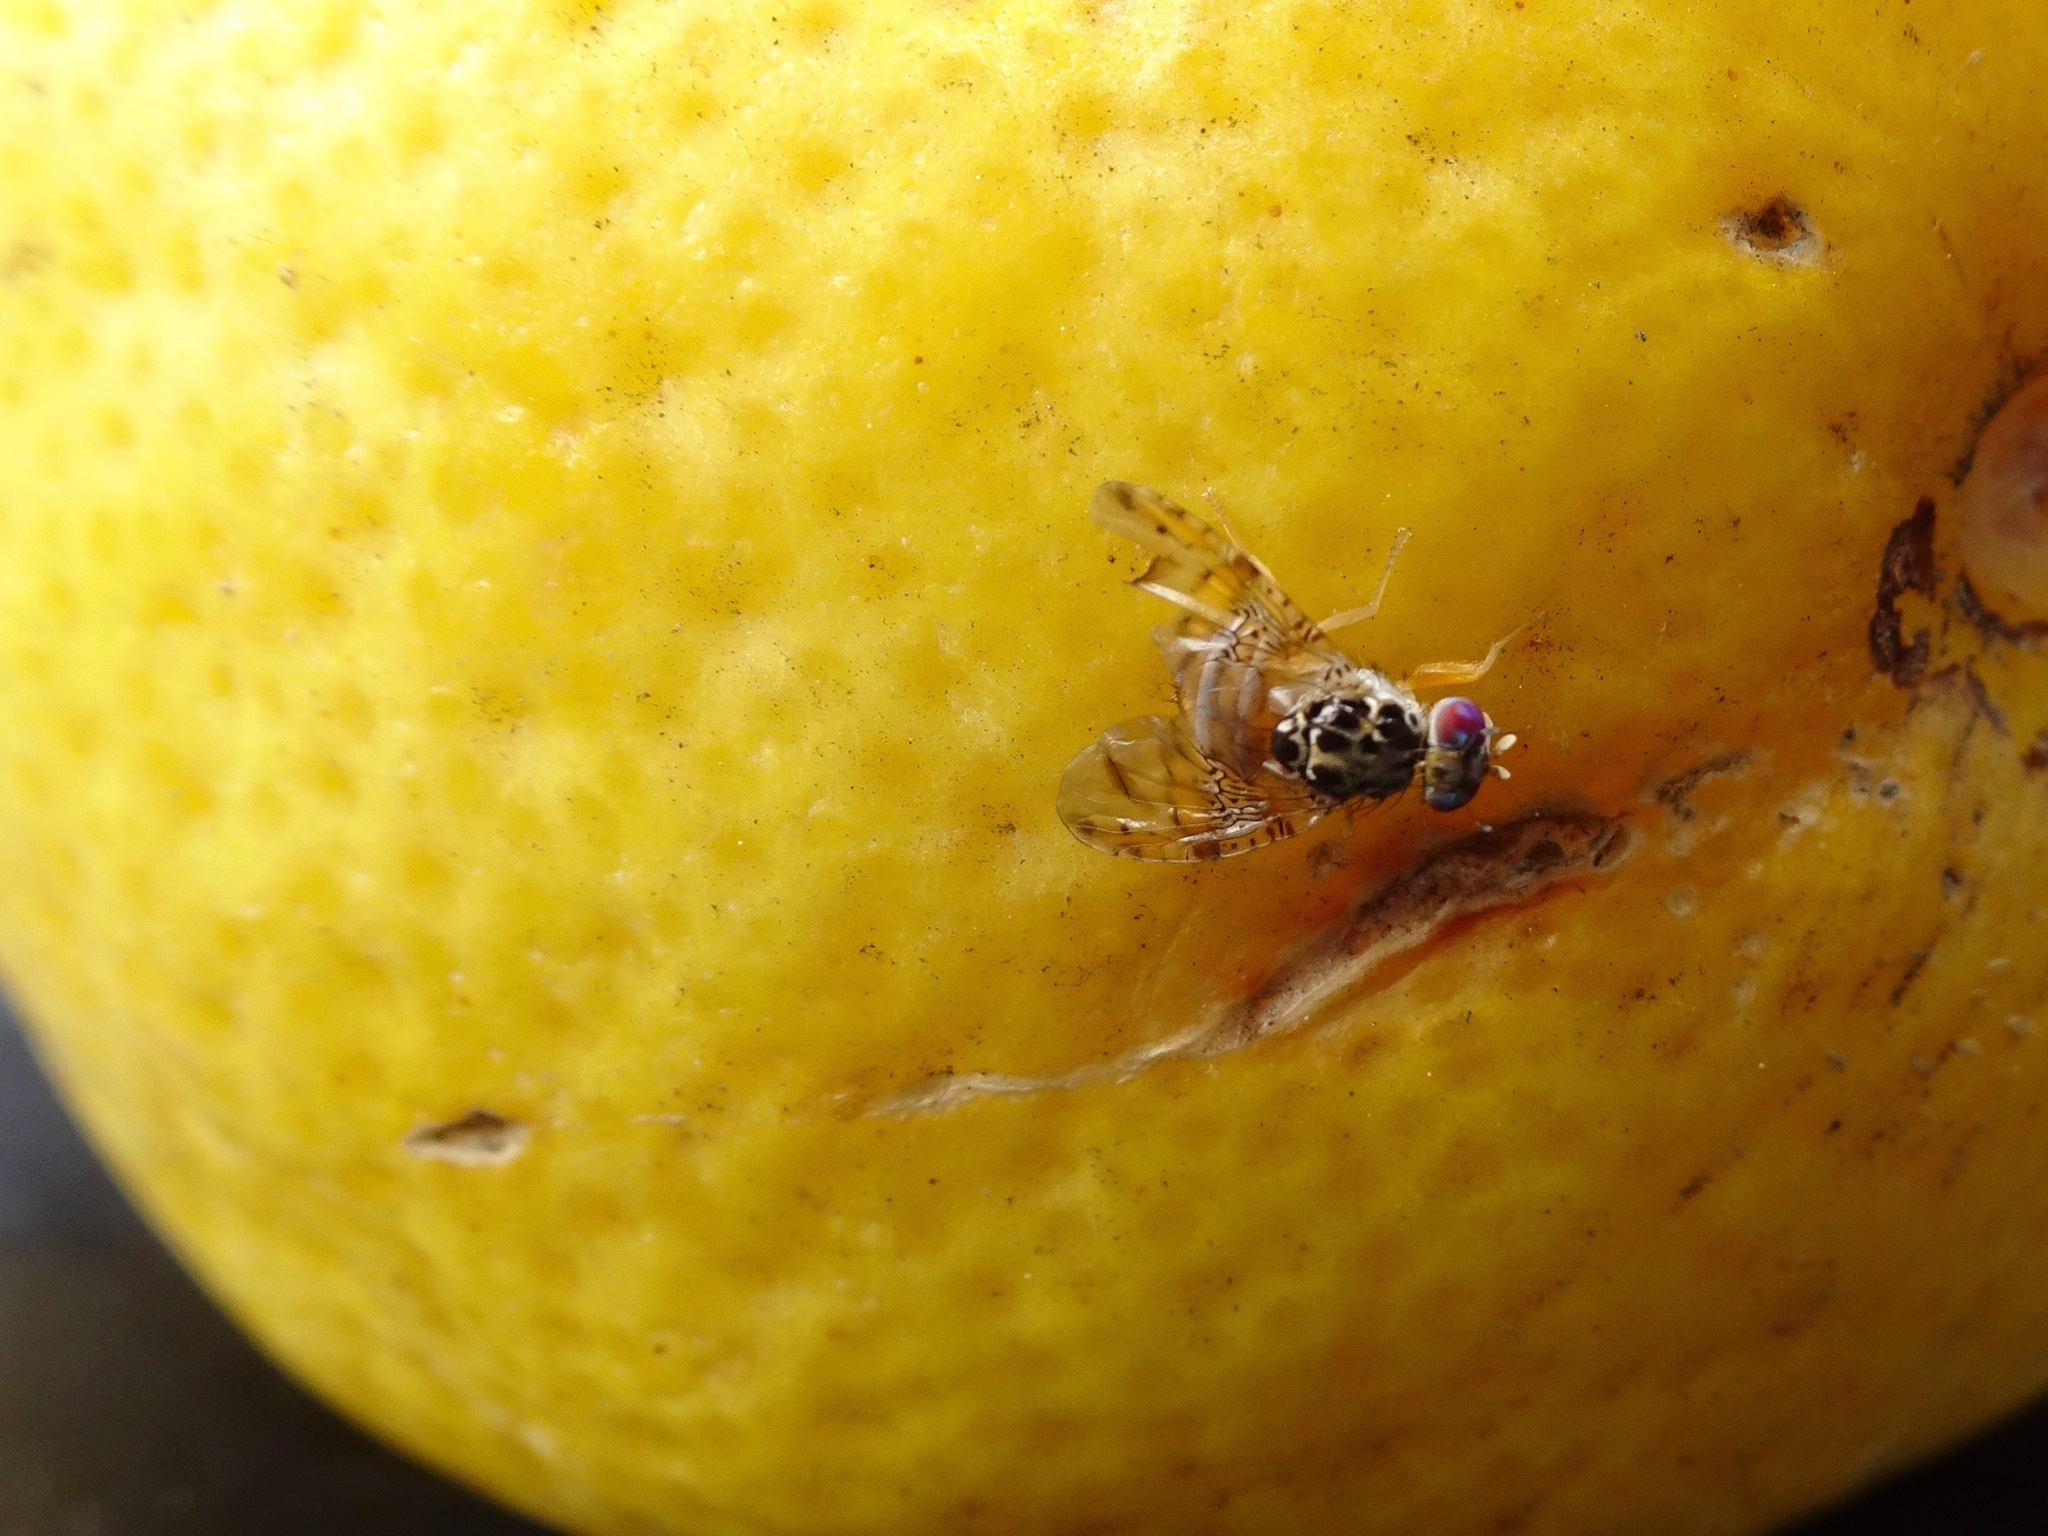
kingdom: Animalia
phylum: Arthropoda
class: Insecta
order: Diptera
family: Tephritidae
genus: Ceratitis
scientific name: Ceratitis capitata
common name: Mediterranean fruit fly
